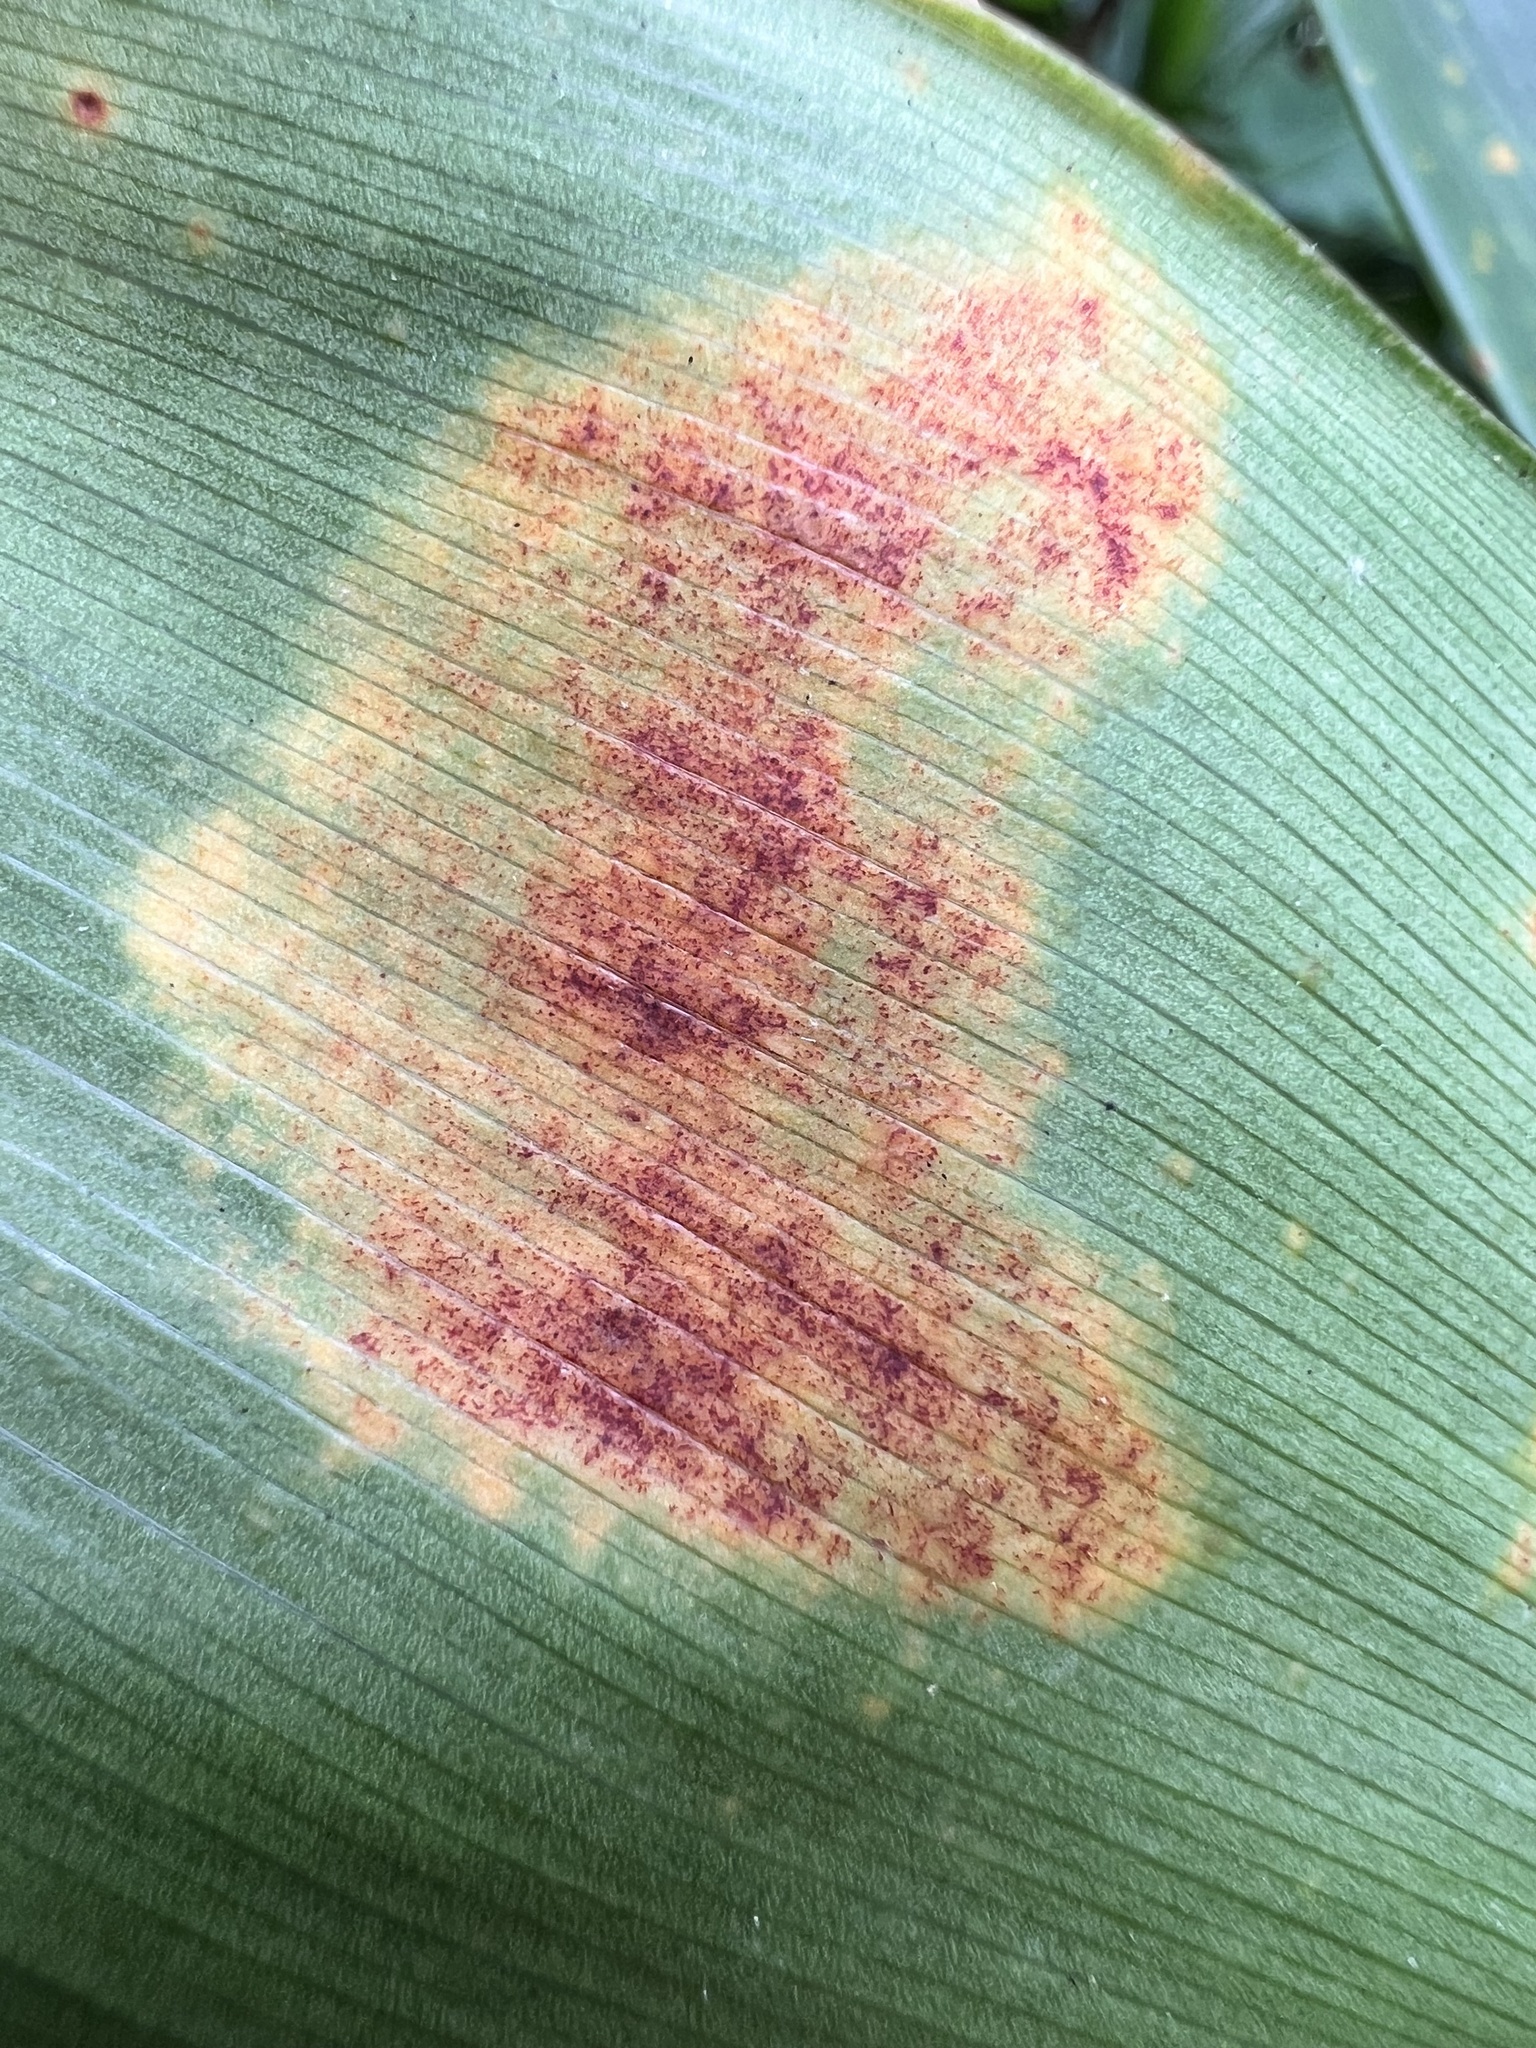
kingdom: Plantae
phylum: Tracheophyta
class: Liliopsida
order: Asparagales
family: Asparagaceae
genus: Cordyline
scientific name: Cordyline fruticosa
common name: Good-luck-plant
